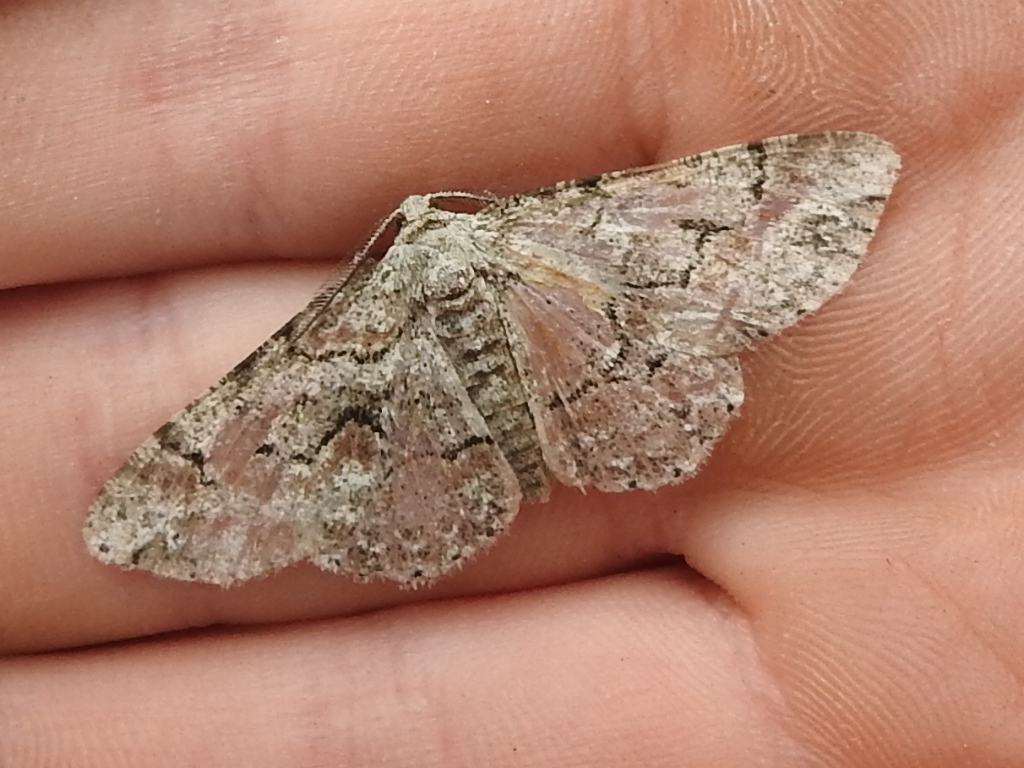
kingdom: Animalia
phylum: Arthropoda
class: Insecta
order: Lepidoptera
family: Geometridae
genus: Iridopsis
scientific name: Iridopsis defectaria
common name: Brown-shaded gray
